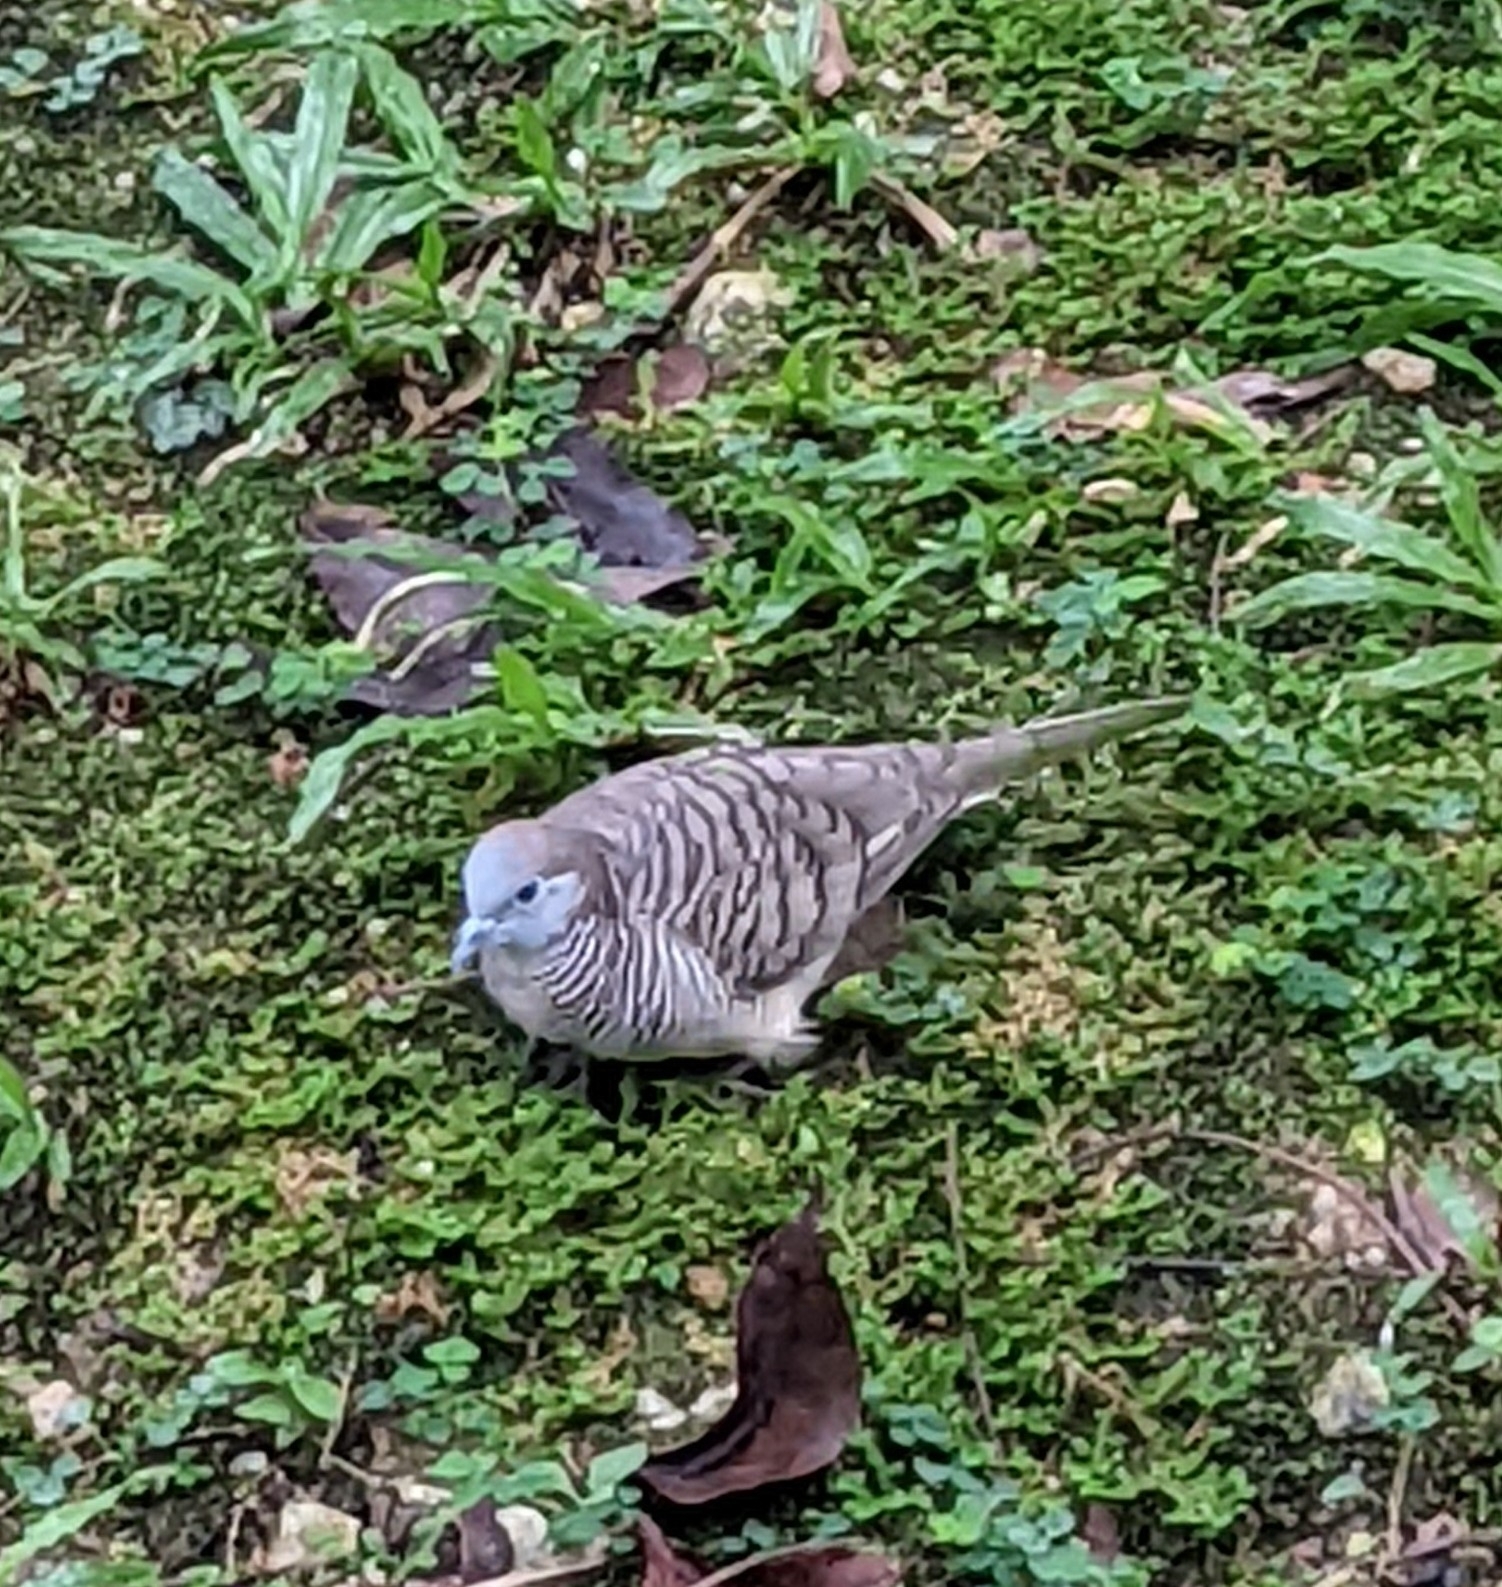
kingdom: Animalia
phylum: Chordata
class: Aves
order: Columbiformes
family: Columbidae
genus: Geopelia
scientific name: Geopelia striata
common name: Zebra dove
